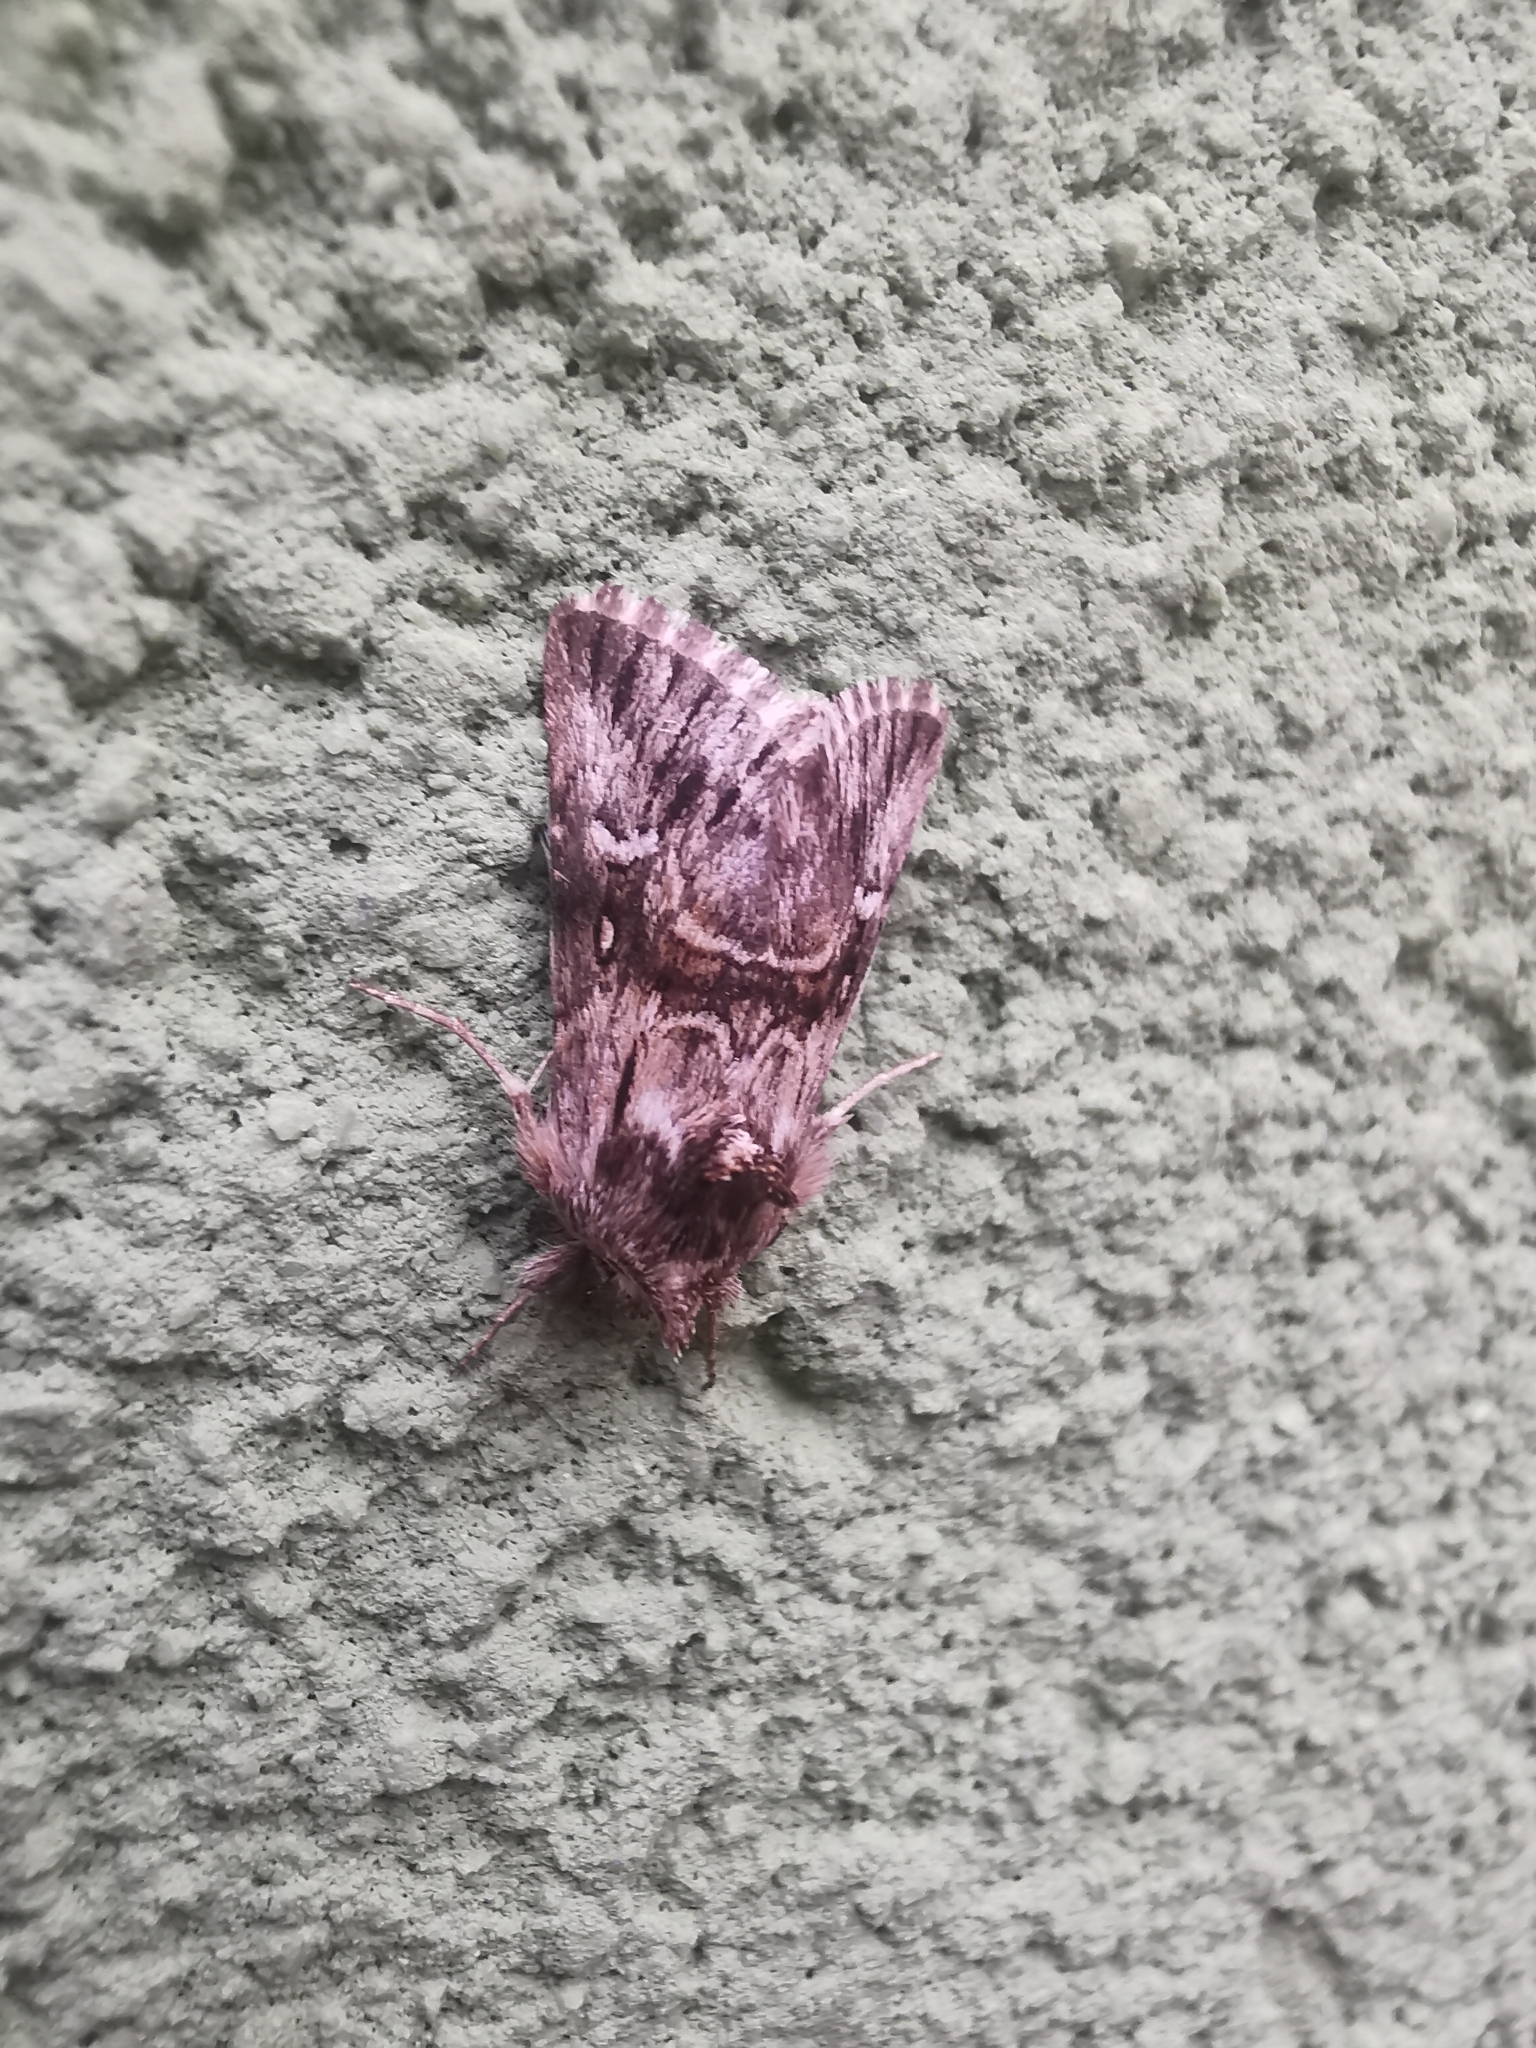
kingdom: Animalia
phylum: Arthropoda
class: Insecta
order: Lepidoptera
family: Noctuidae
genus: Calophasia
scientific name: Calophasia lunula
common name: Toadflax brocade
